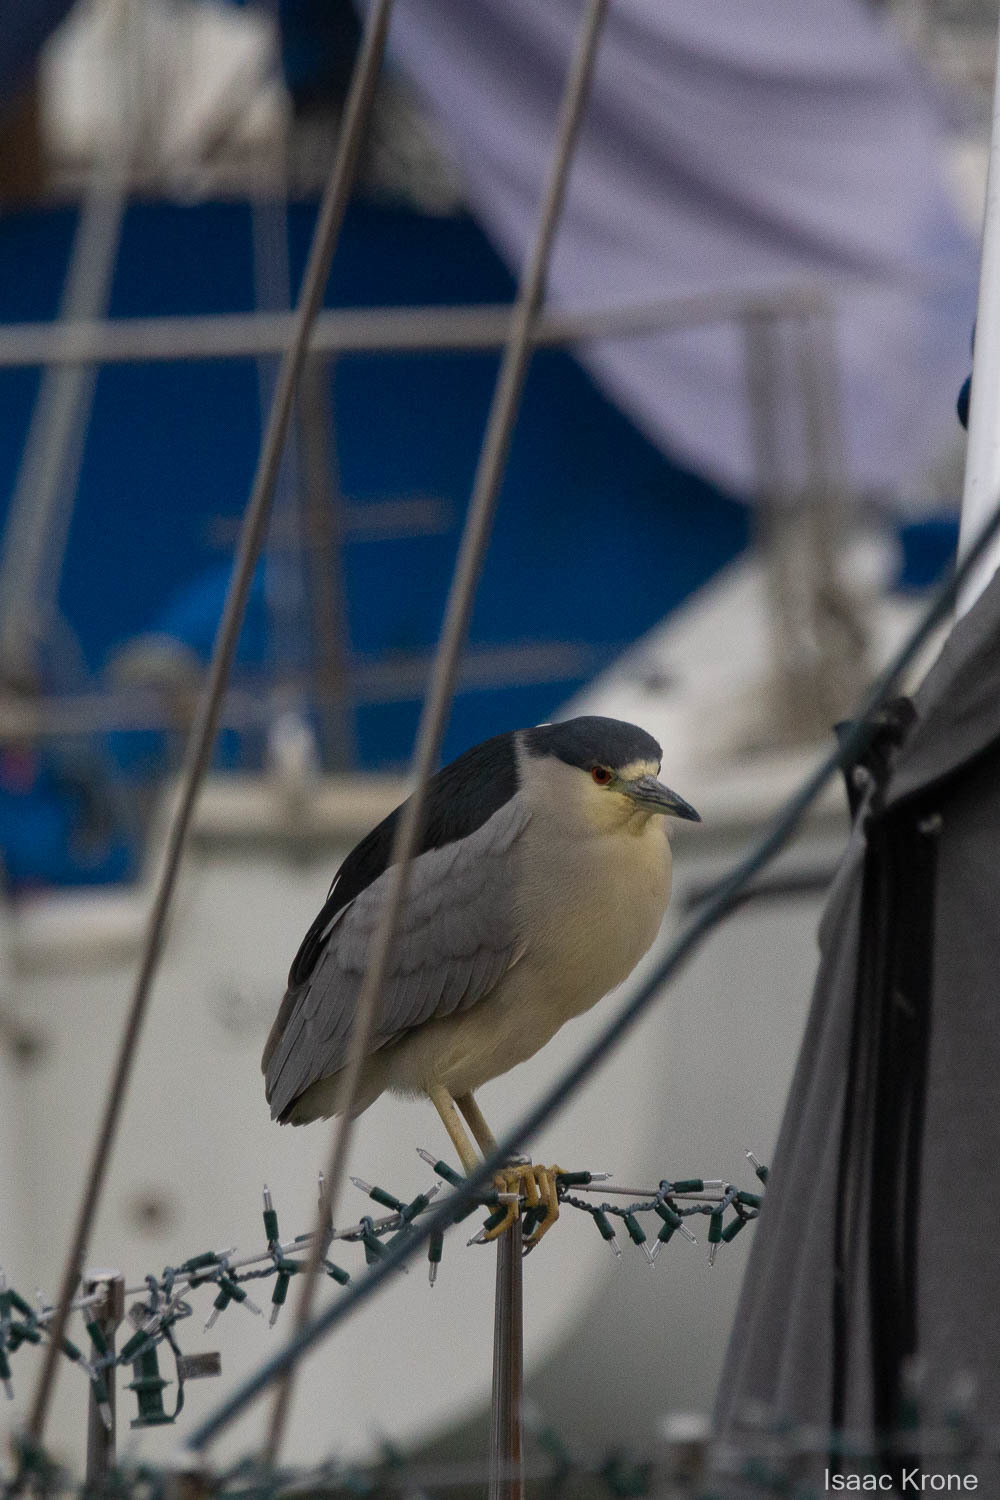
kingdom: Animalia
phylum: Chordata
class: Aves
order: Pelecaniformes
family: Ardeidae
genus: Nycticorax
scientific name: Nycticorax nycticorax
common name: Black-crowned night heron
